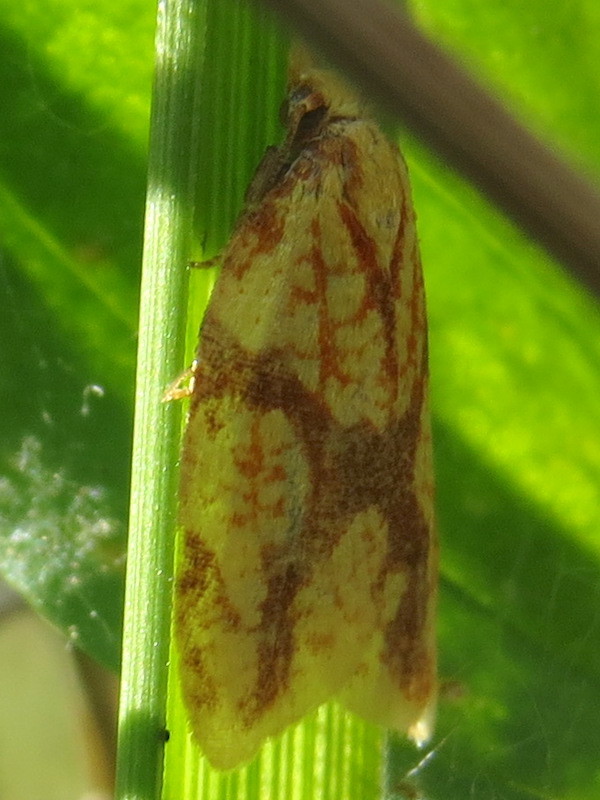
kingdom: Animalia
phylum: Arthropoda
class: Insecta
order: Lepidoptera
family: Tortricidae
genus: Sparganothis
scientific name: Sparganothis sulfureana
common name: Sparganothis fruitworm moth
